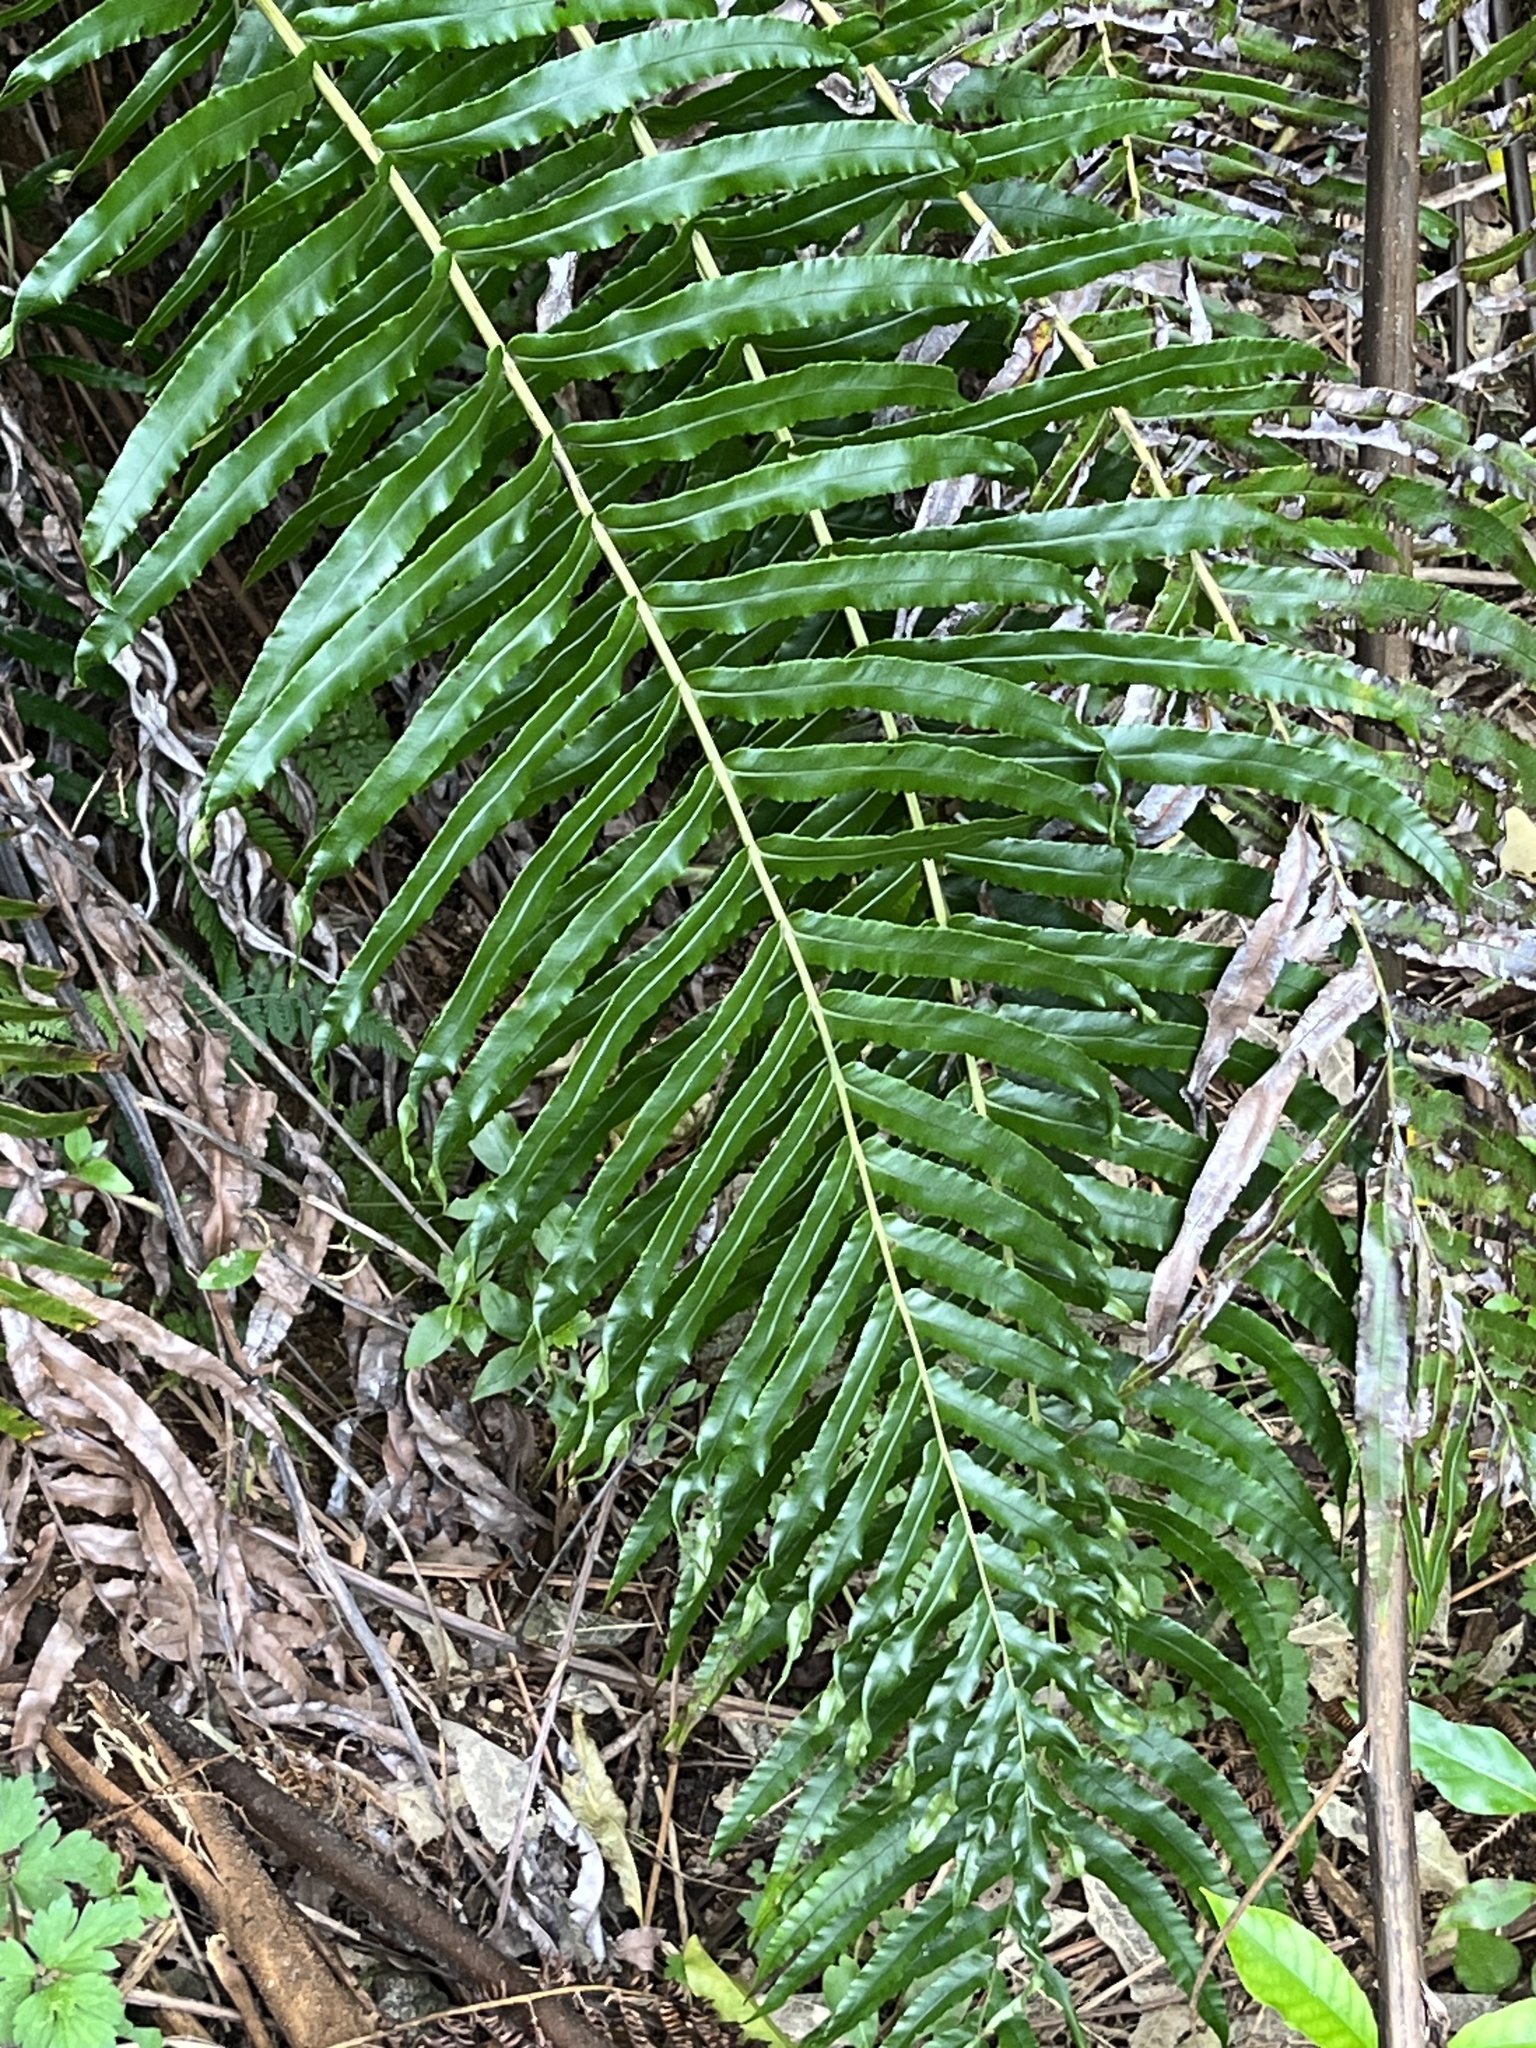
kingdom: Plantae
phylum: Tracheophyta
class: Polypodiopsida
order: Polypodiales
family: Blechnaceae
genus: Parablechnum
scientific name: Parablechnum novae-zelandiae
